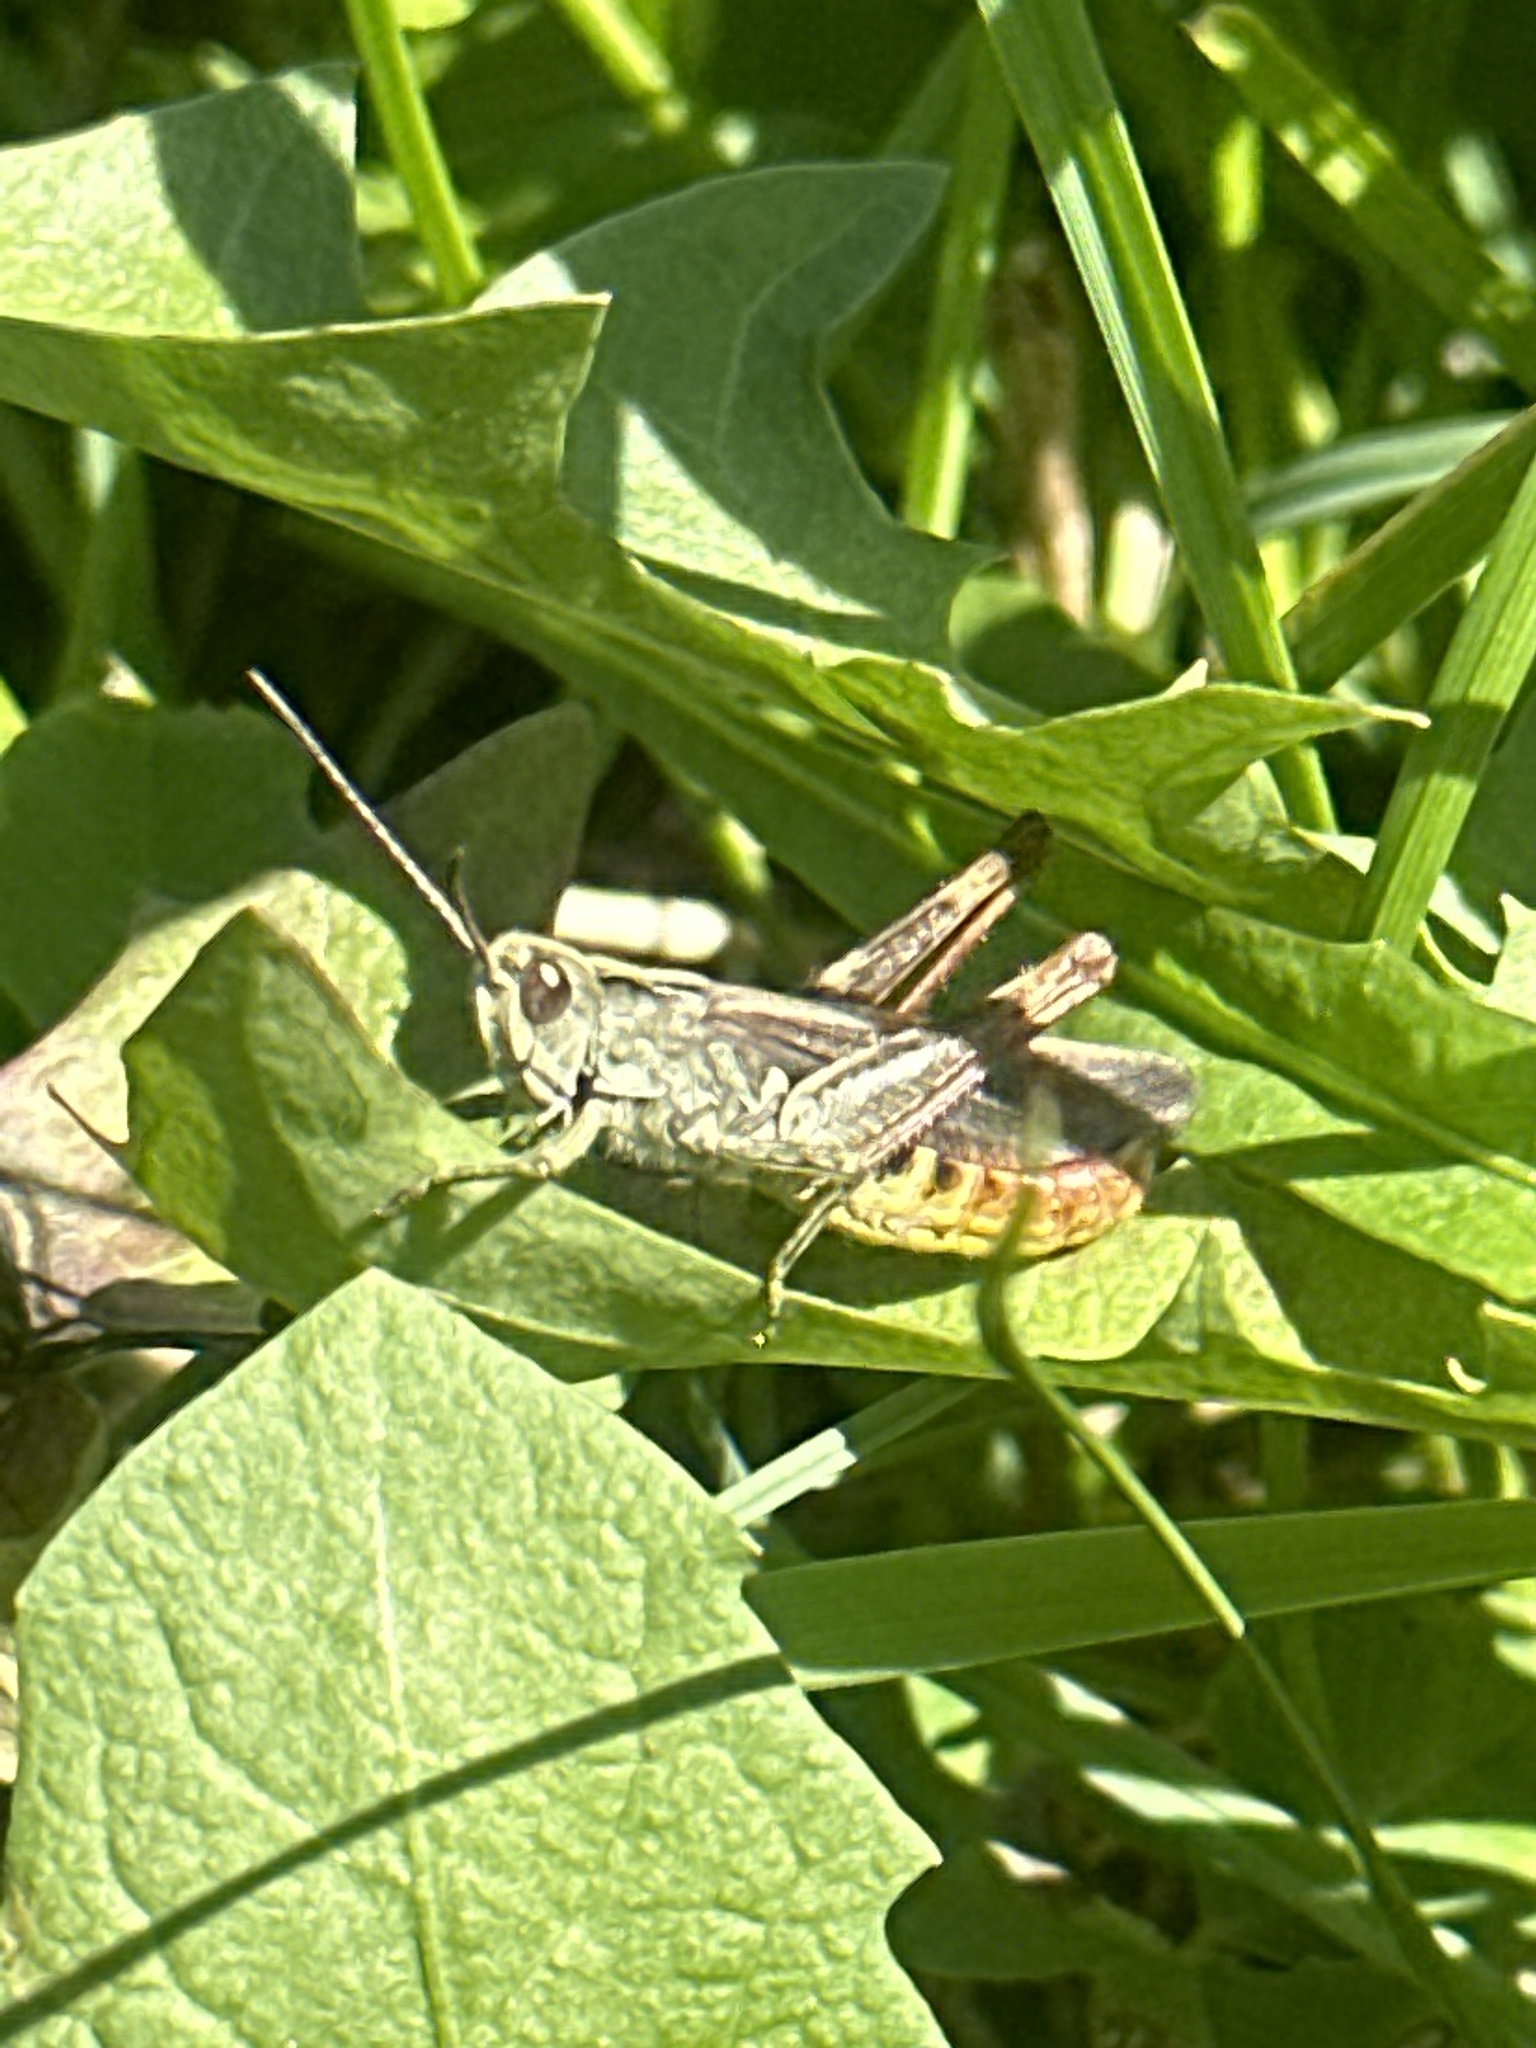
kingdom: Animalia
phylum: Arthropoda
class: Insecta
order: Orthoptera
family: Acrididae
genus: Chorthippus
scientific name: Chorthippus biguttulus
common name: Bow-winged grasshopper
